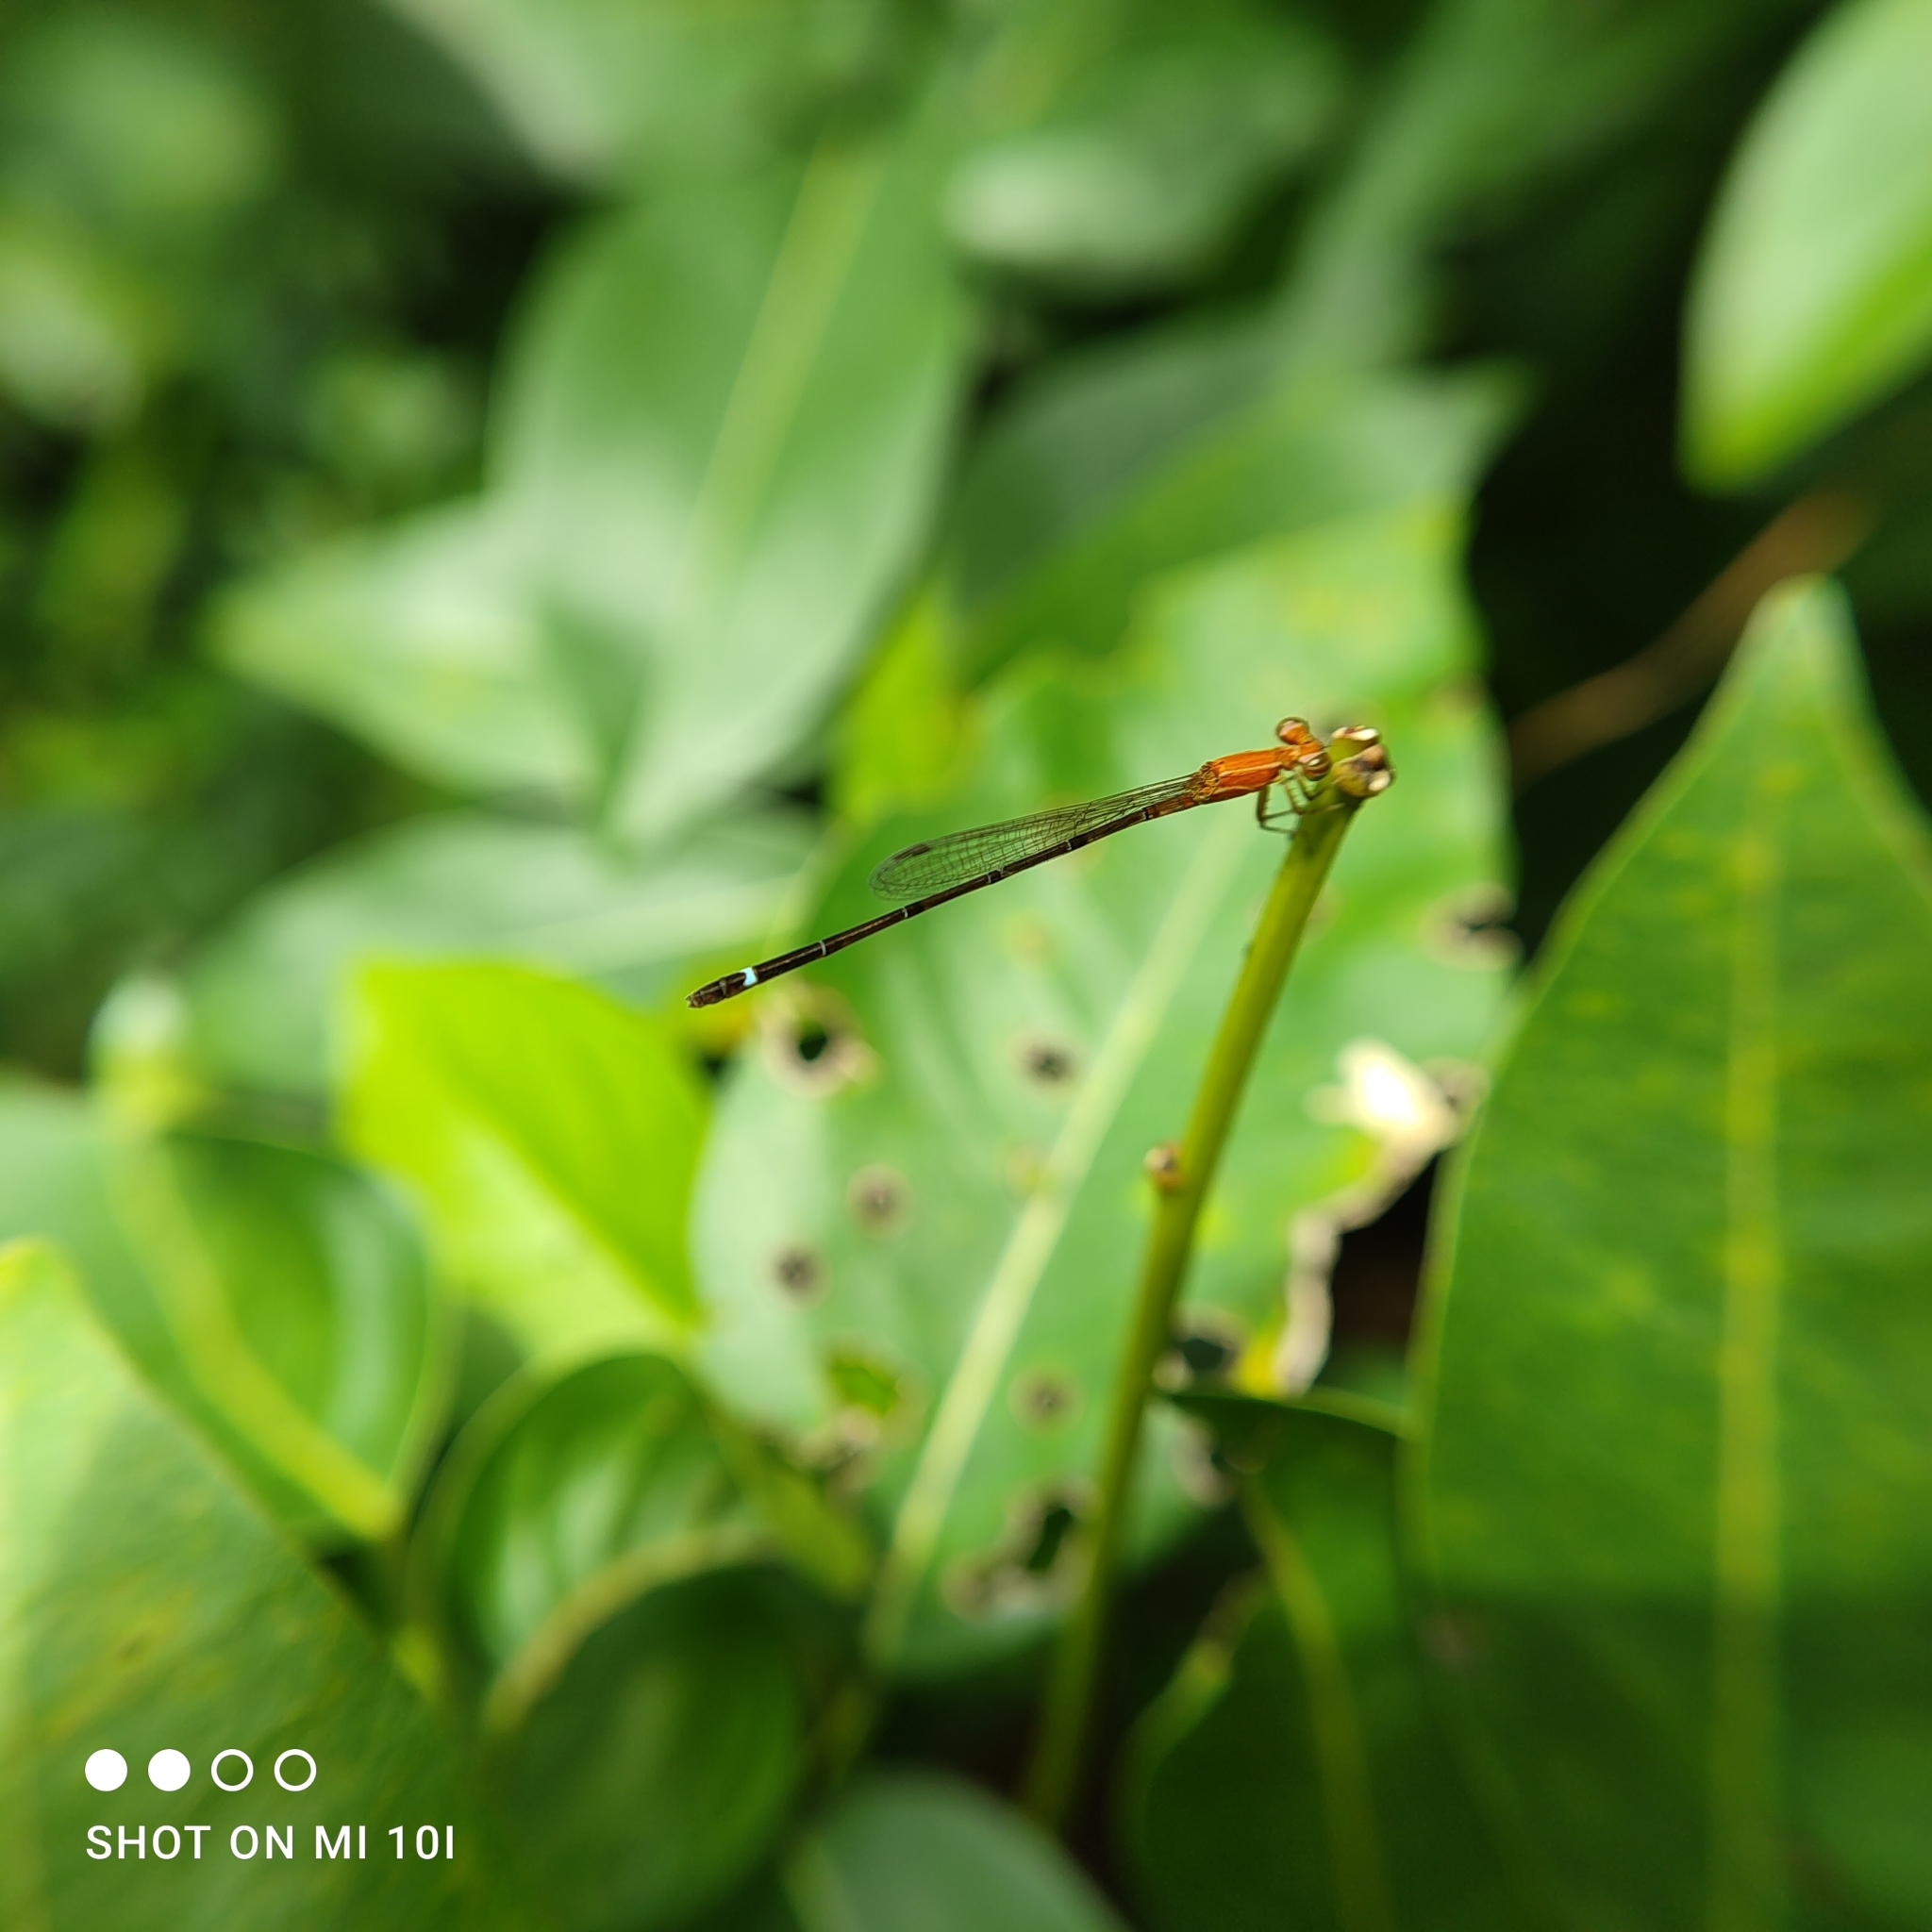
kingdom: Animalia
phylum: Arthropoda
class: Insecta
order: Odonata
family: Coenagrionidae
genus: Mortonagrion
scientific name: Mortonagrion varralli
